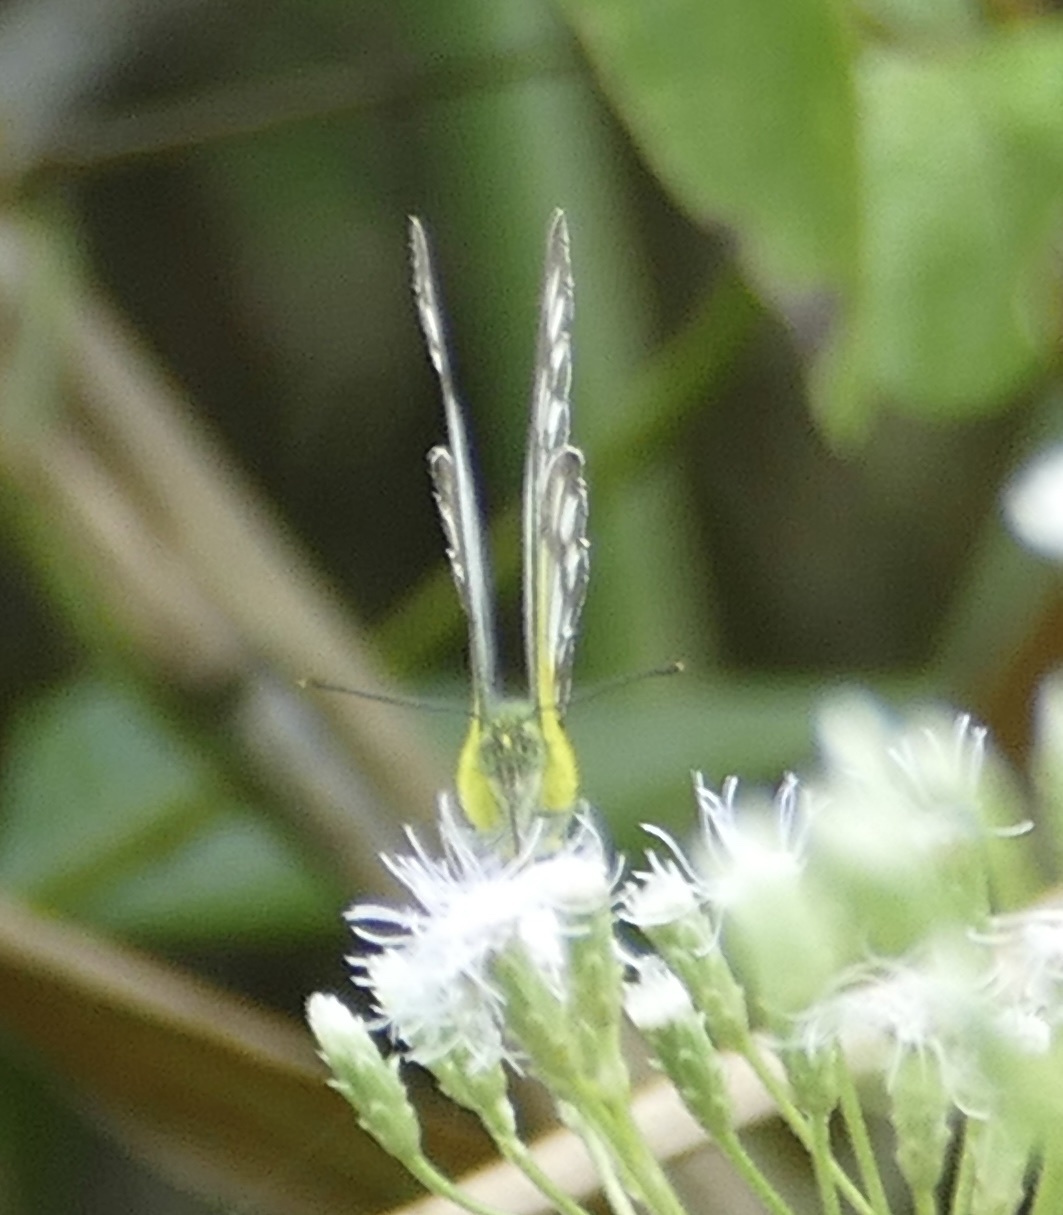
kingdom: Animalia
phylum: Arthropoda
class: Insecta
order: Lepidoptera
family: Pieridae
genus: Cepora
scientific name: Cepora timnatha
